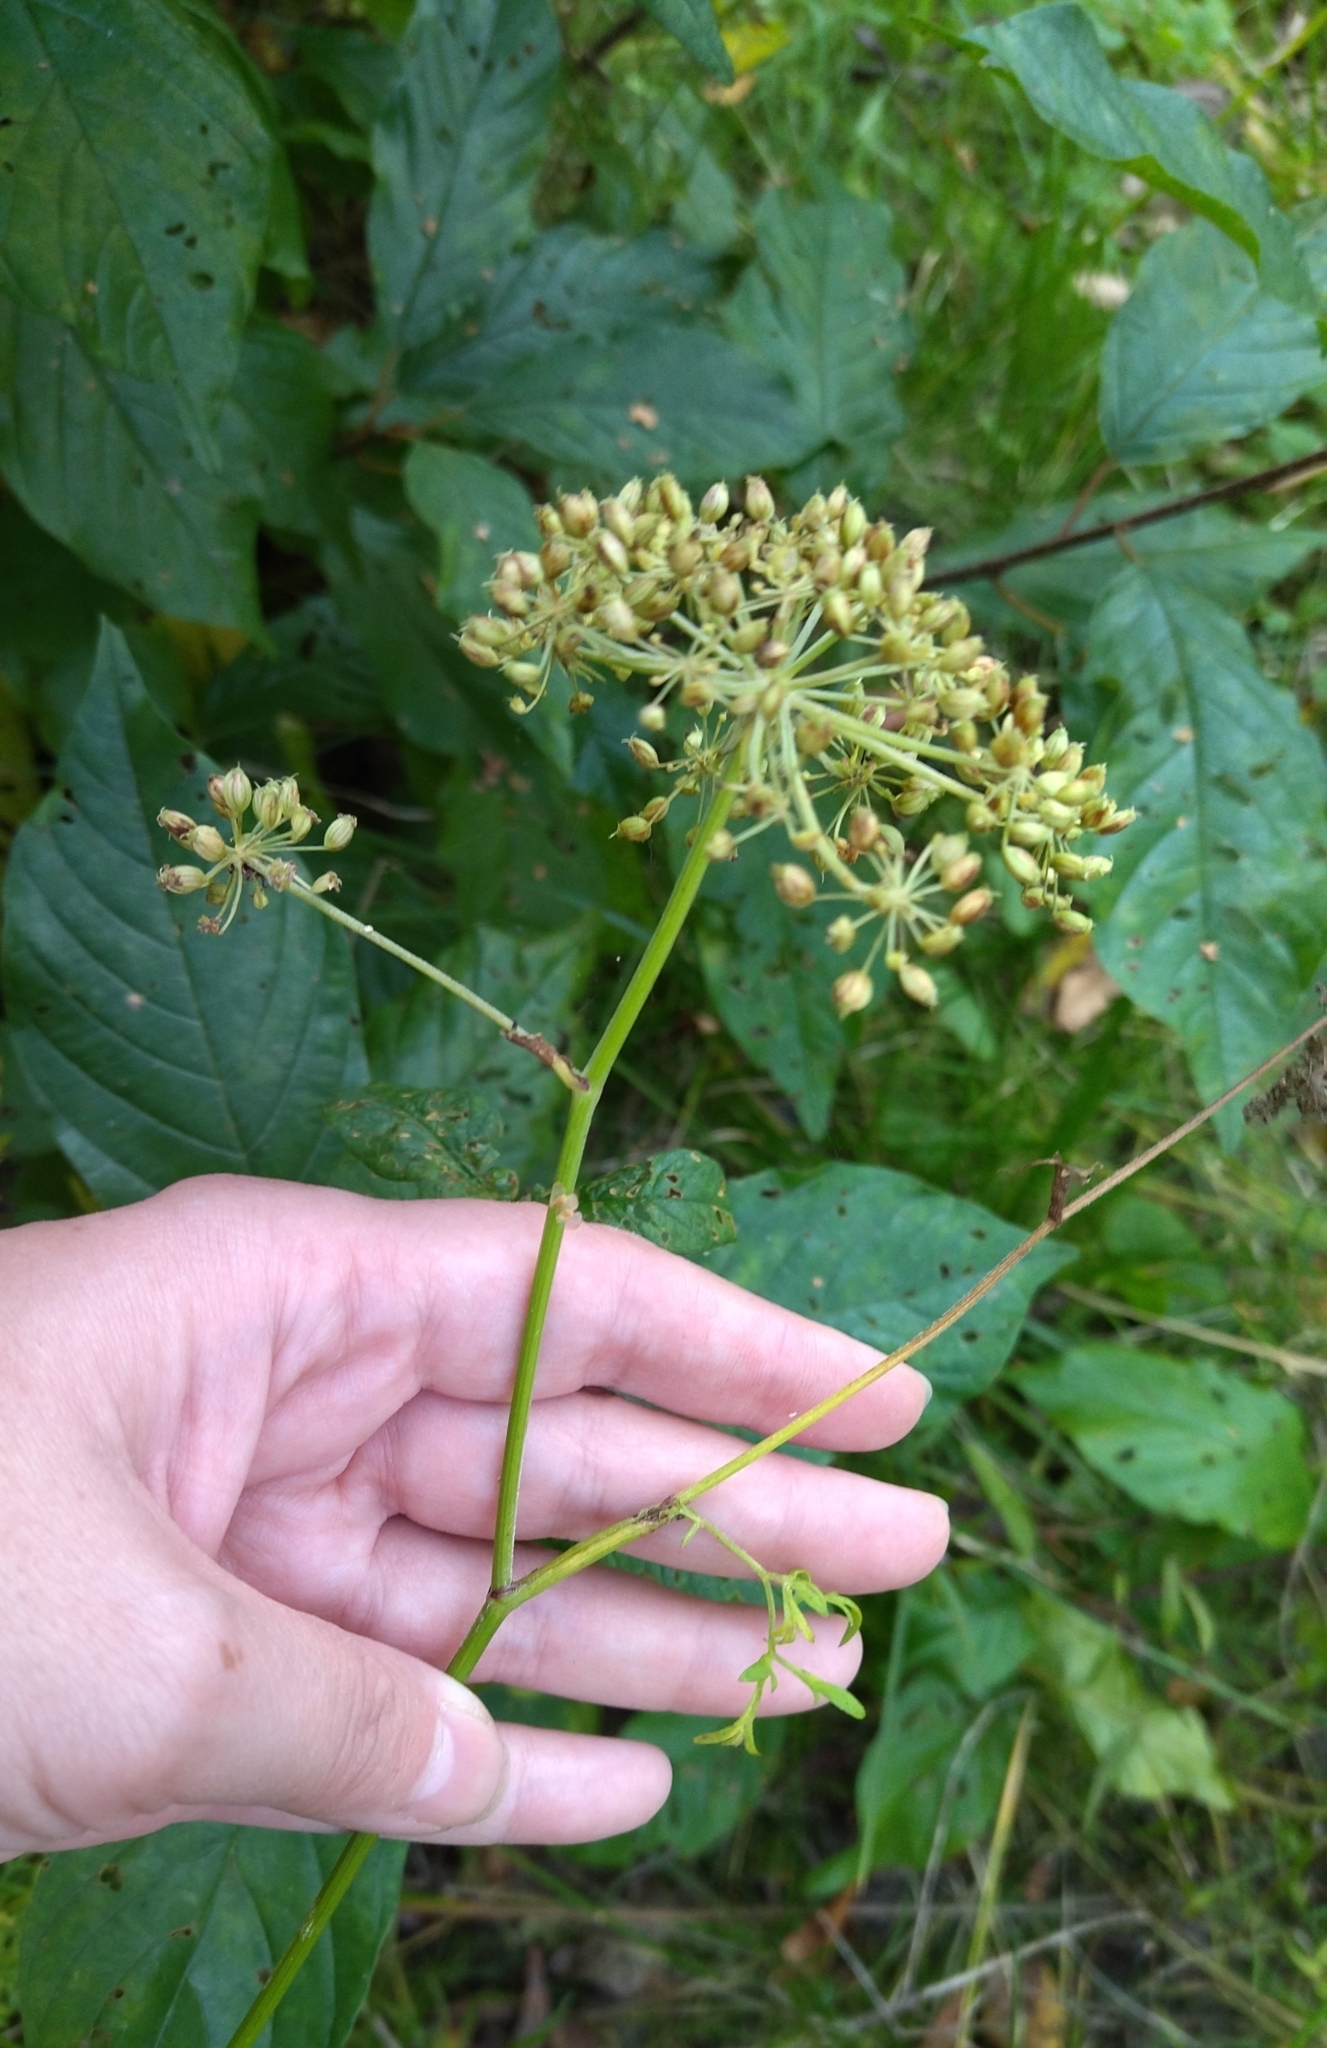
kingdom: Plantae
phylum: Tracheophyta
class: Magnoliopsida
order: Apiales
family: Apiaceae
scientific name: Apiaceae
